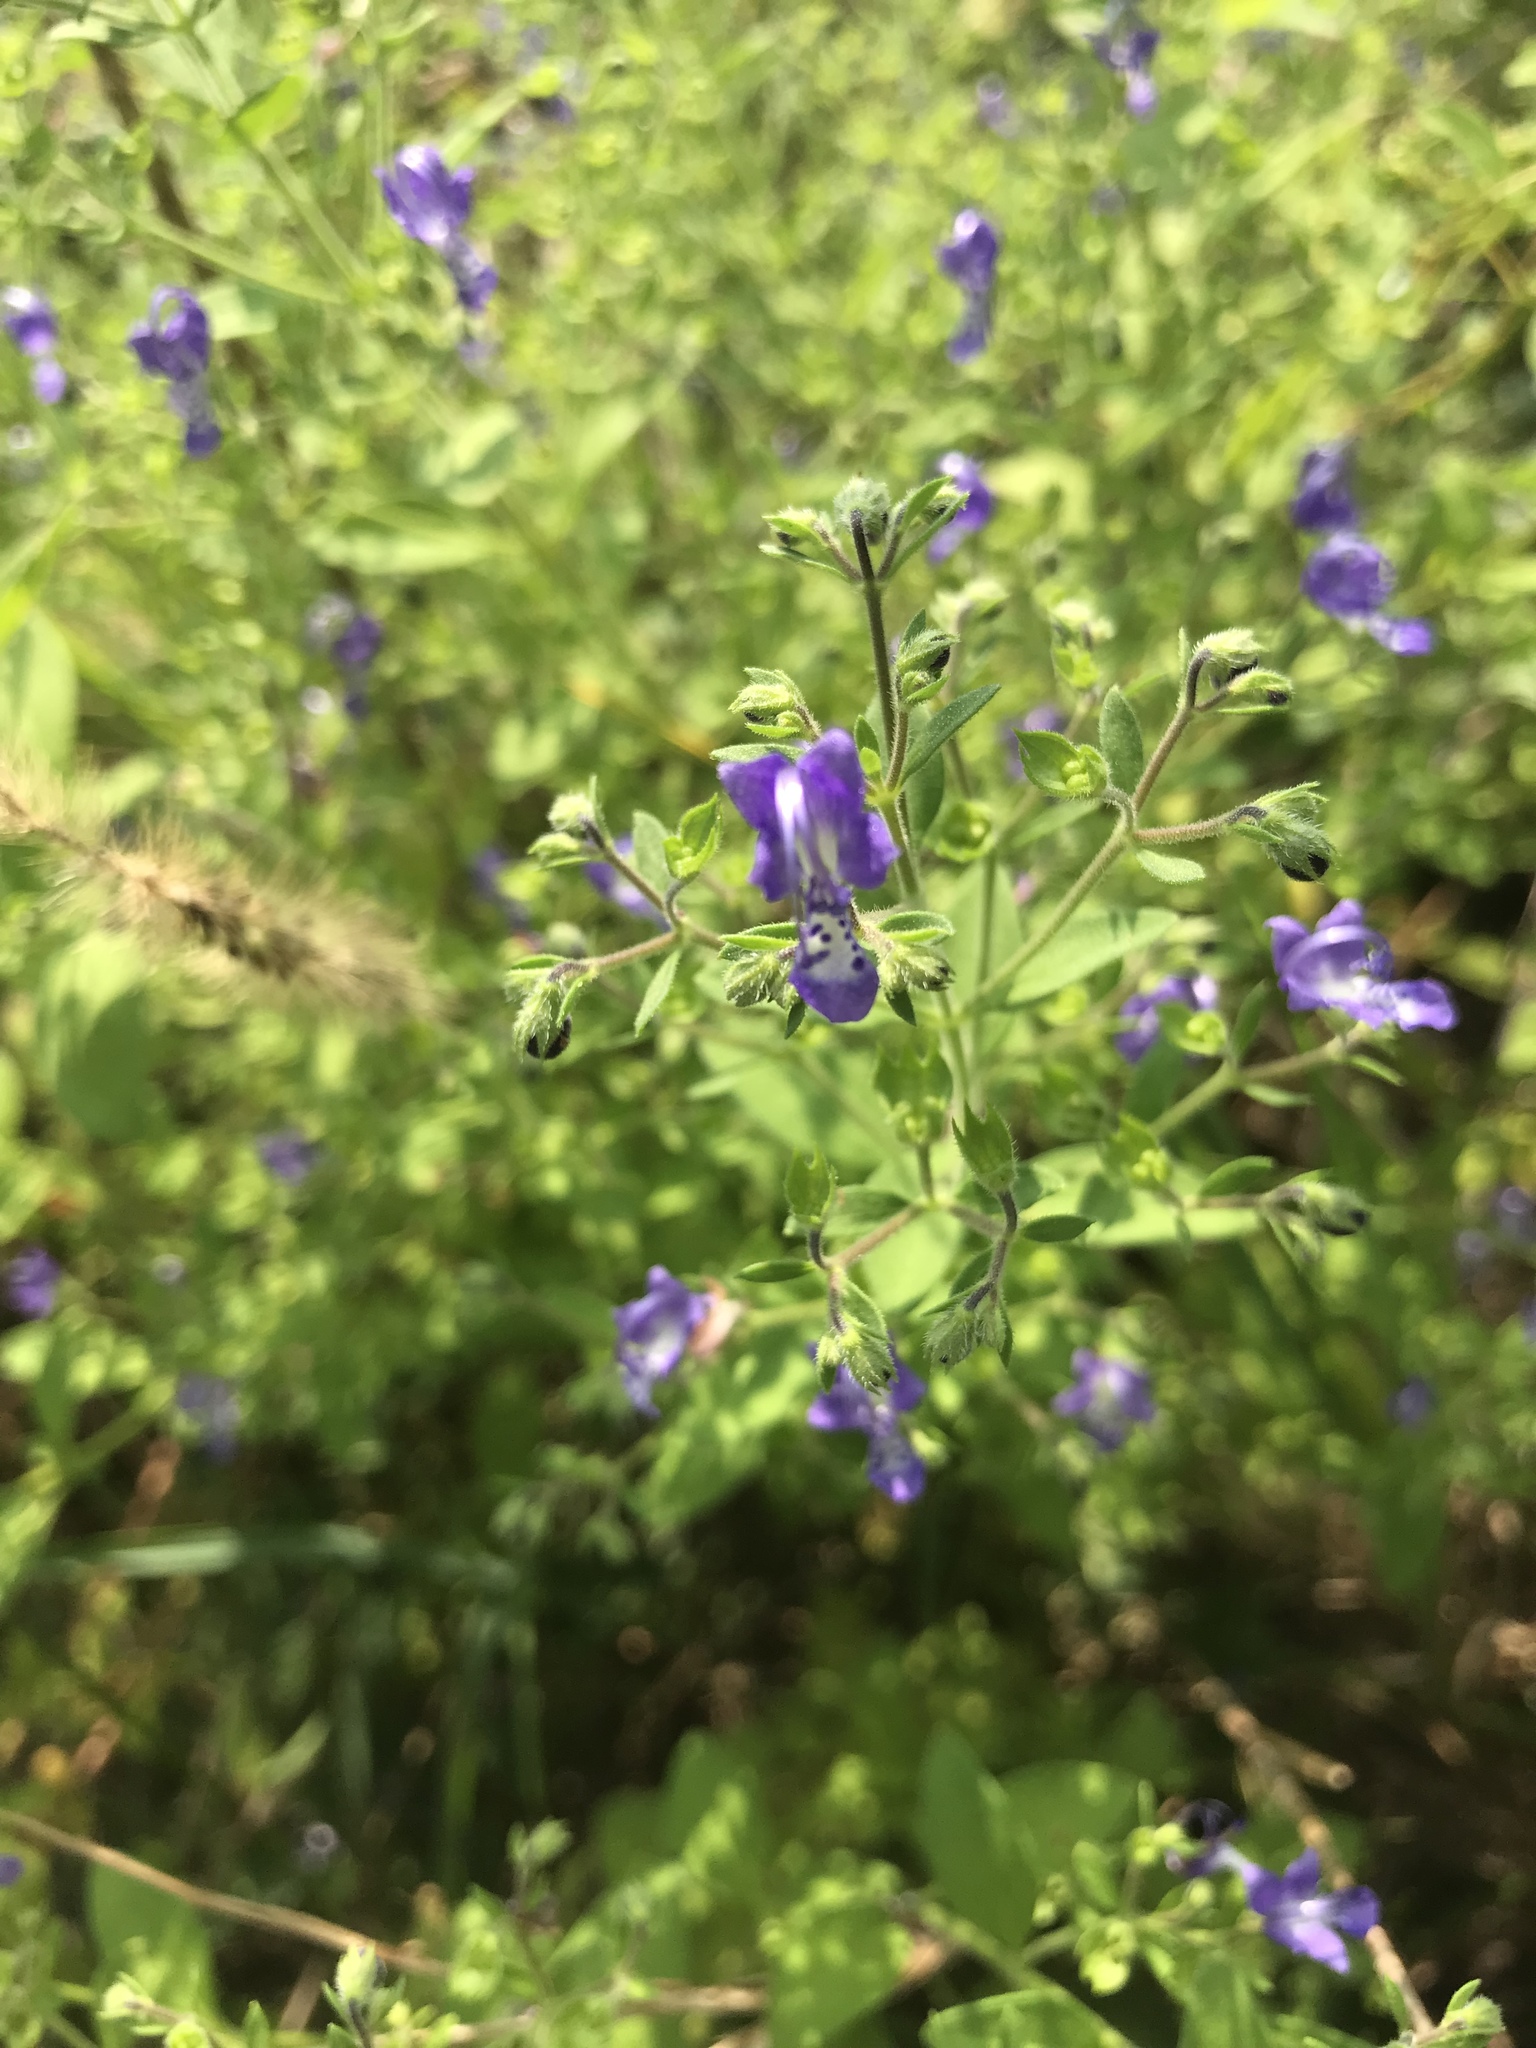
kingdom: Plantae
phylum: Tracheophyta
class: Magnoliopsida
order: Lamiales
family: Lamiaceae
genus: Trichostema
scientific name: Trichostema dichotomum
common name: Bastard pennyroyal
